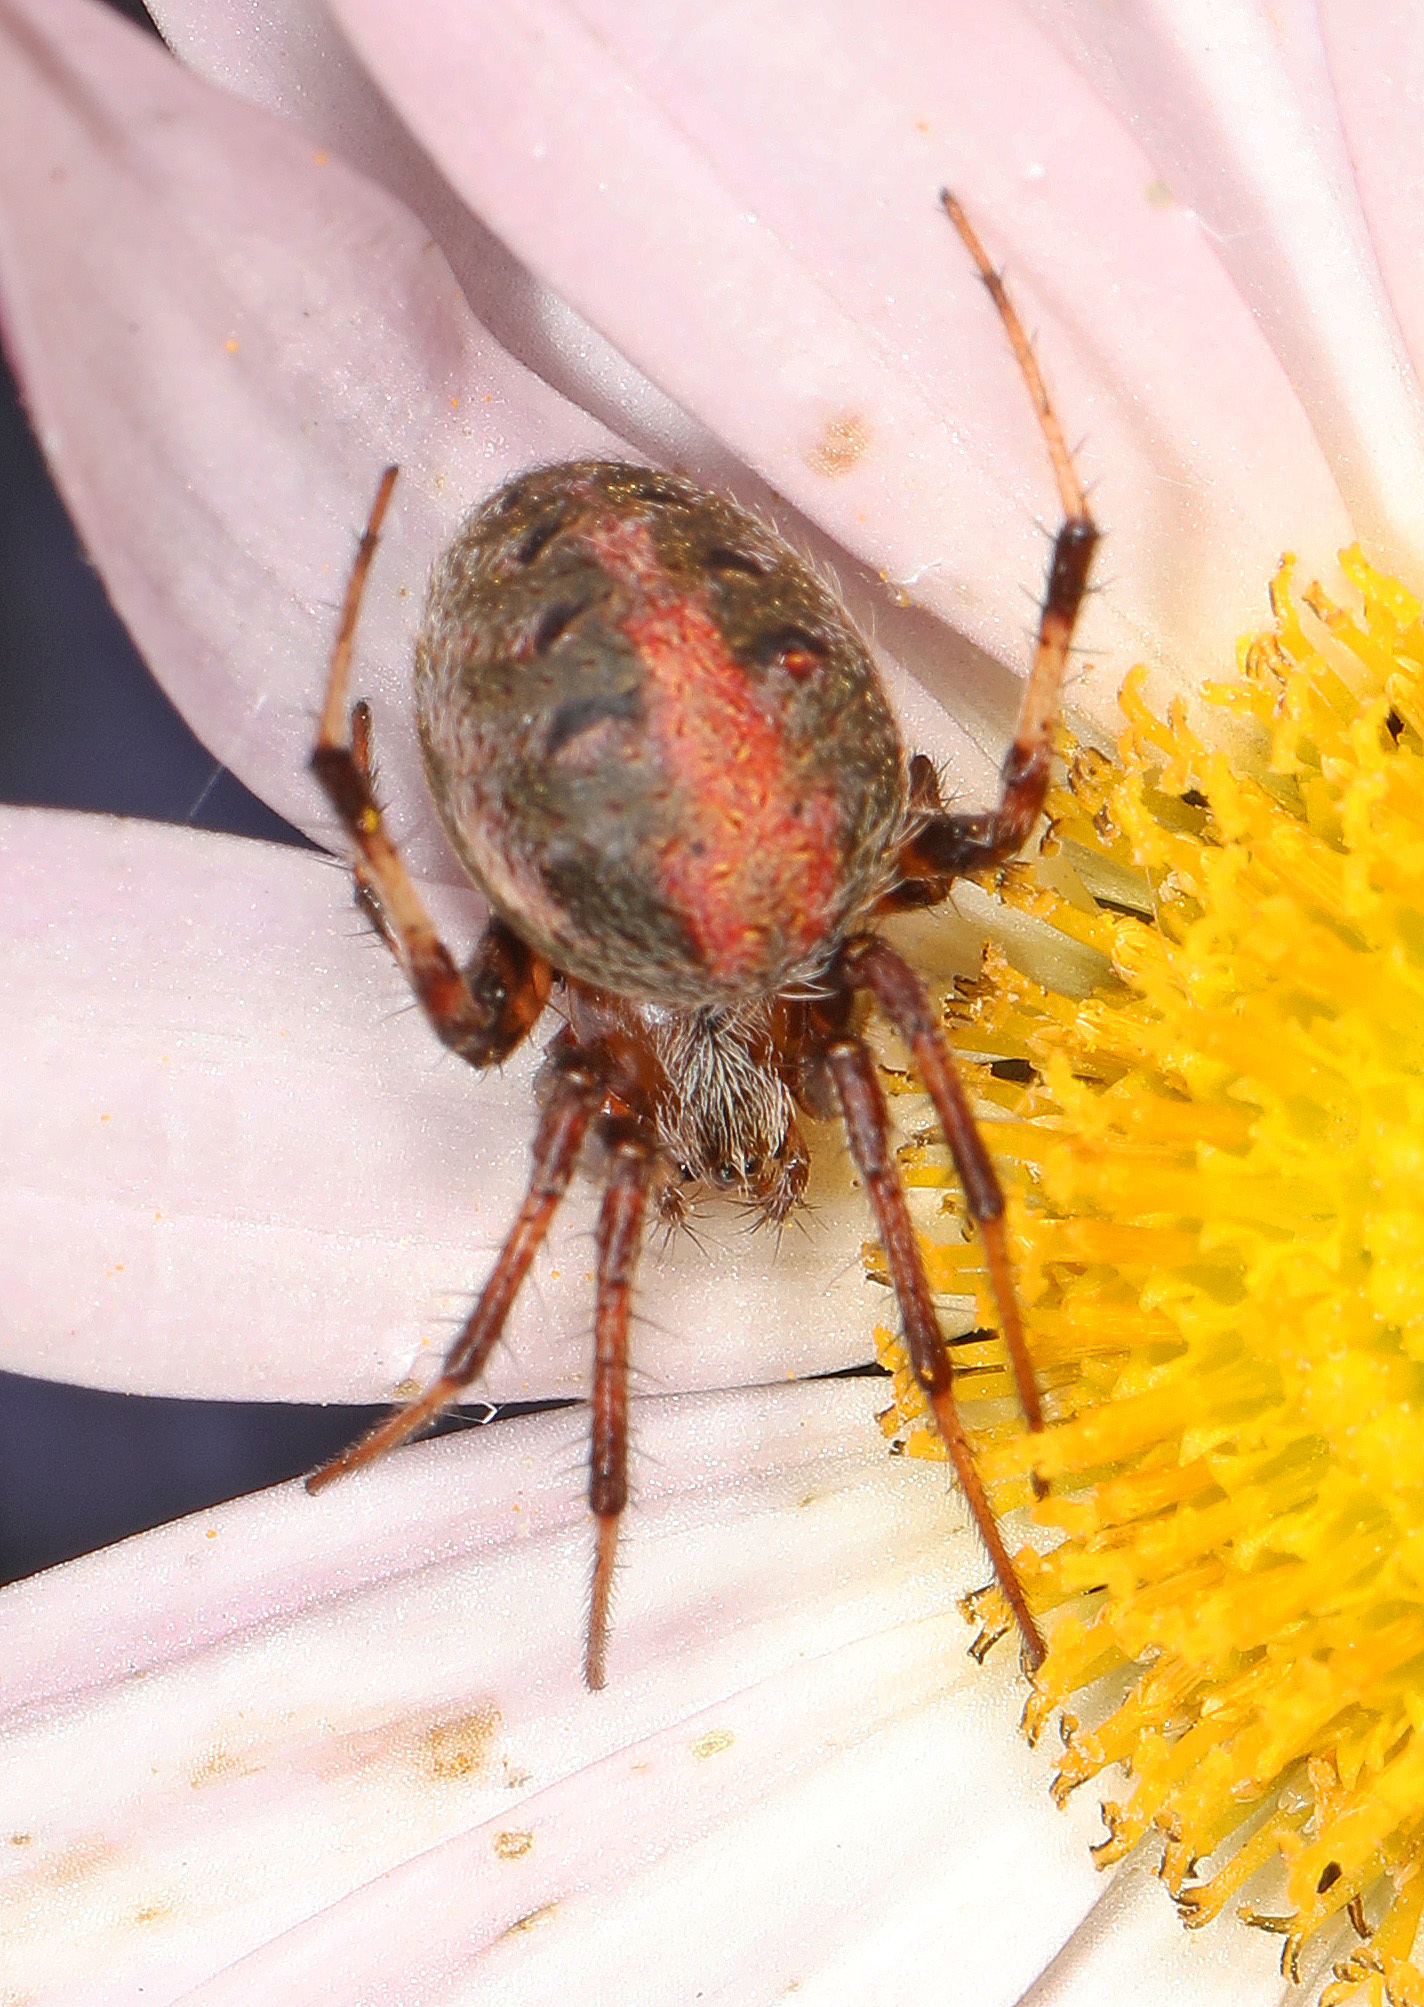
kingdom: Animalia
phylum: Arthropoda
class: Arachnida
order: Araneae
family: Araneidae
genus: Neoscona
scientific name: Neoscona arabesca
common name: Orb weavers
